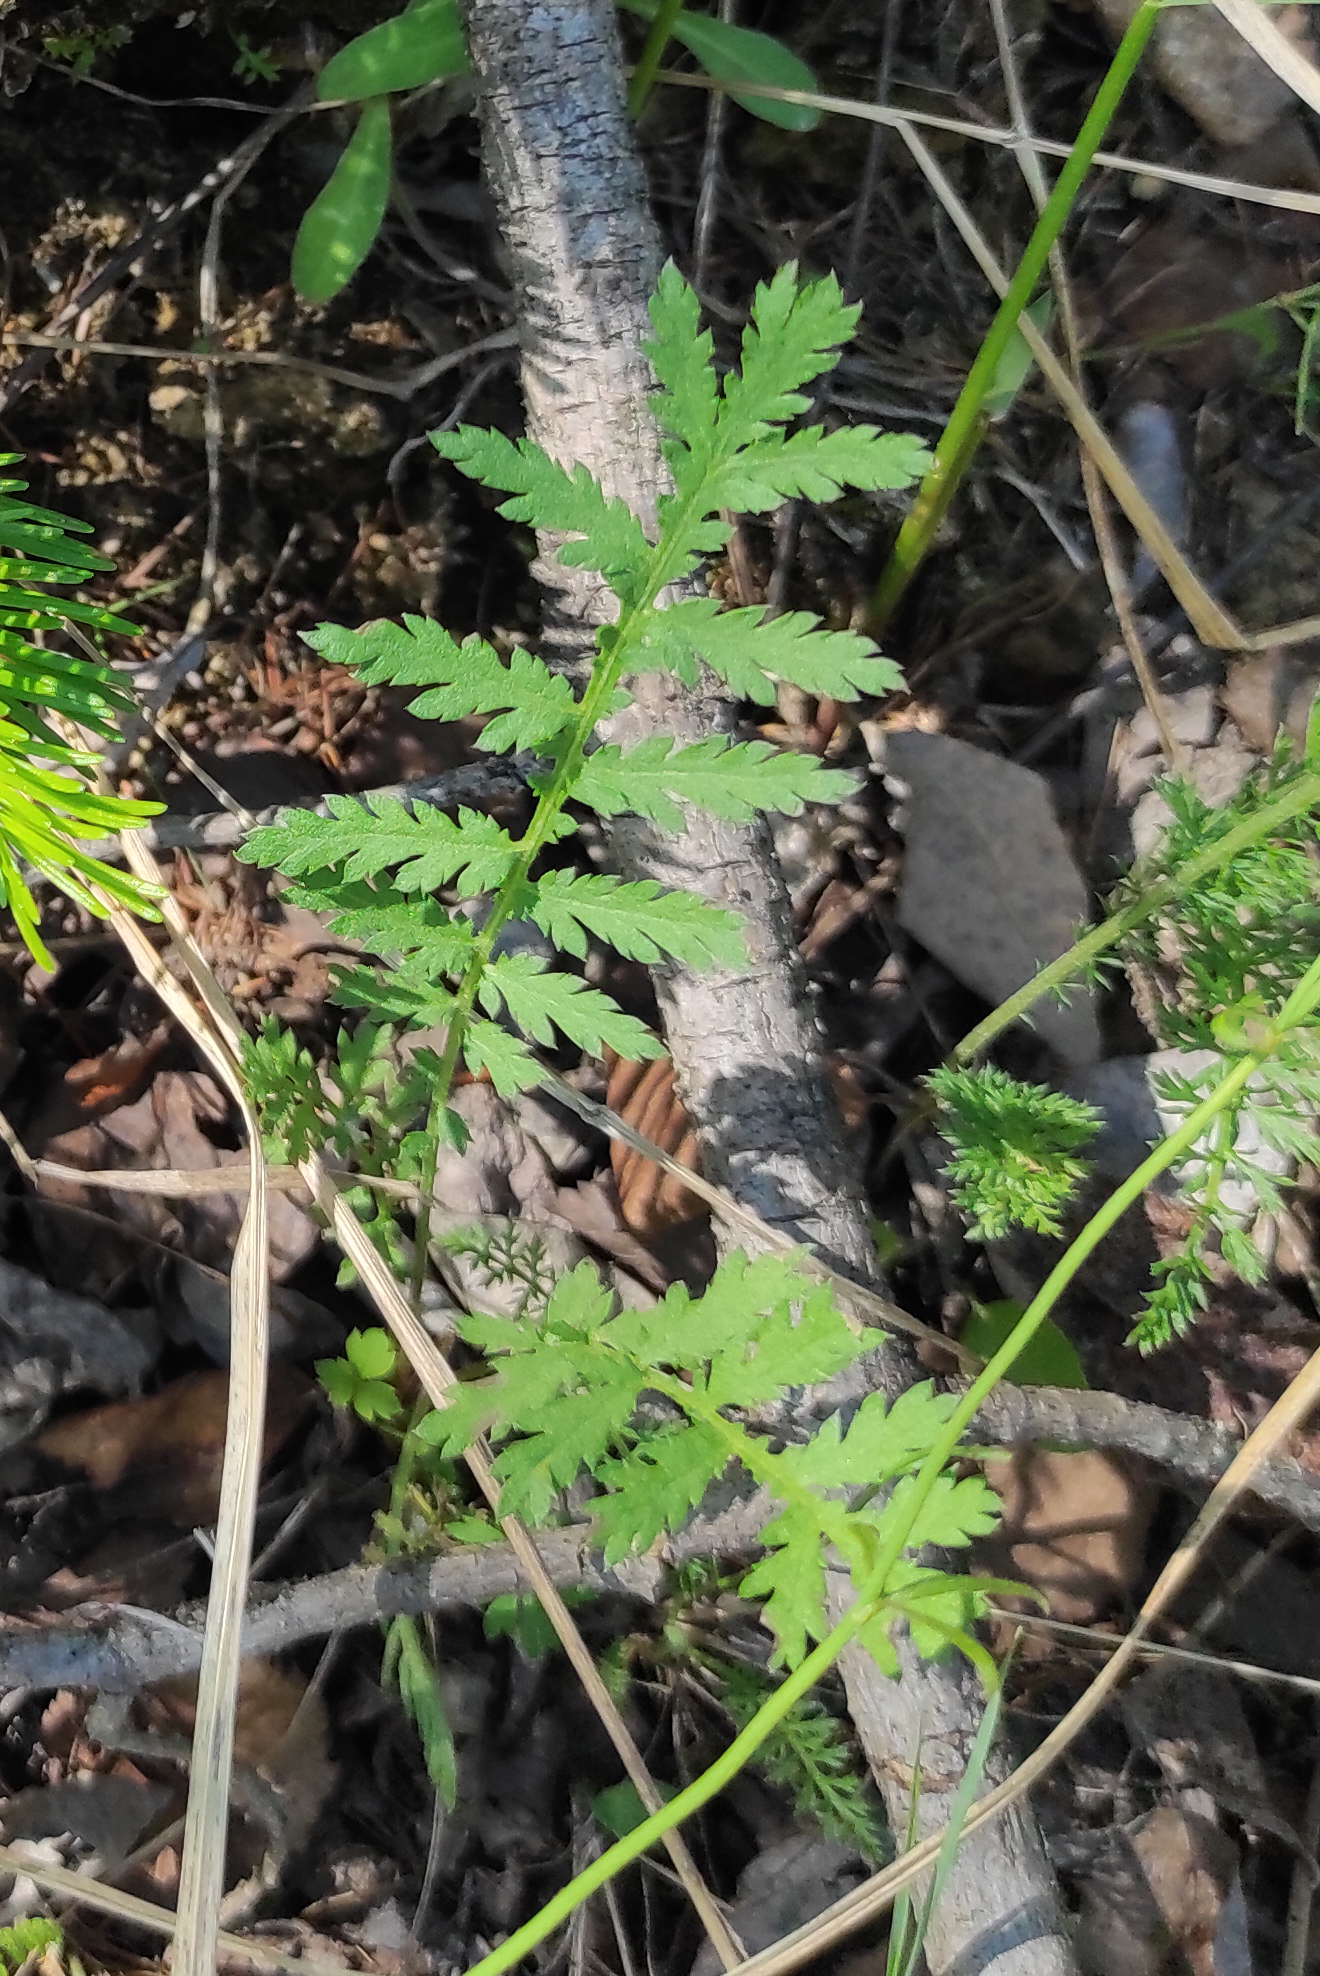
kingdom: Plantae
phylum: Tracheophyta
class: Magnoliopsida
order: Asterales
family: Asteraceae
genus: Tanacetum
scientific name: Tanacetum vulgare
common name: Common tansy
